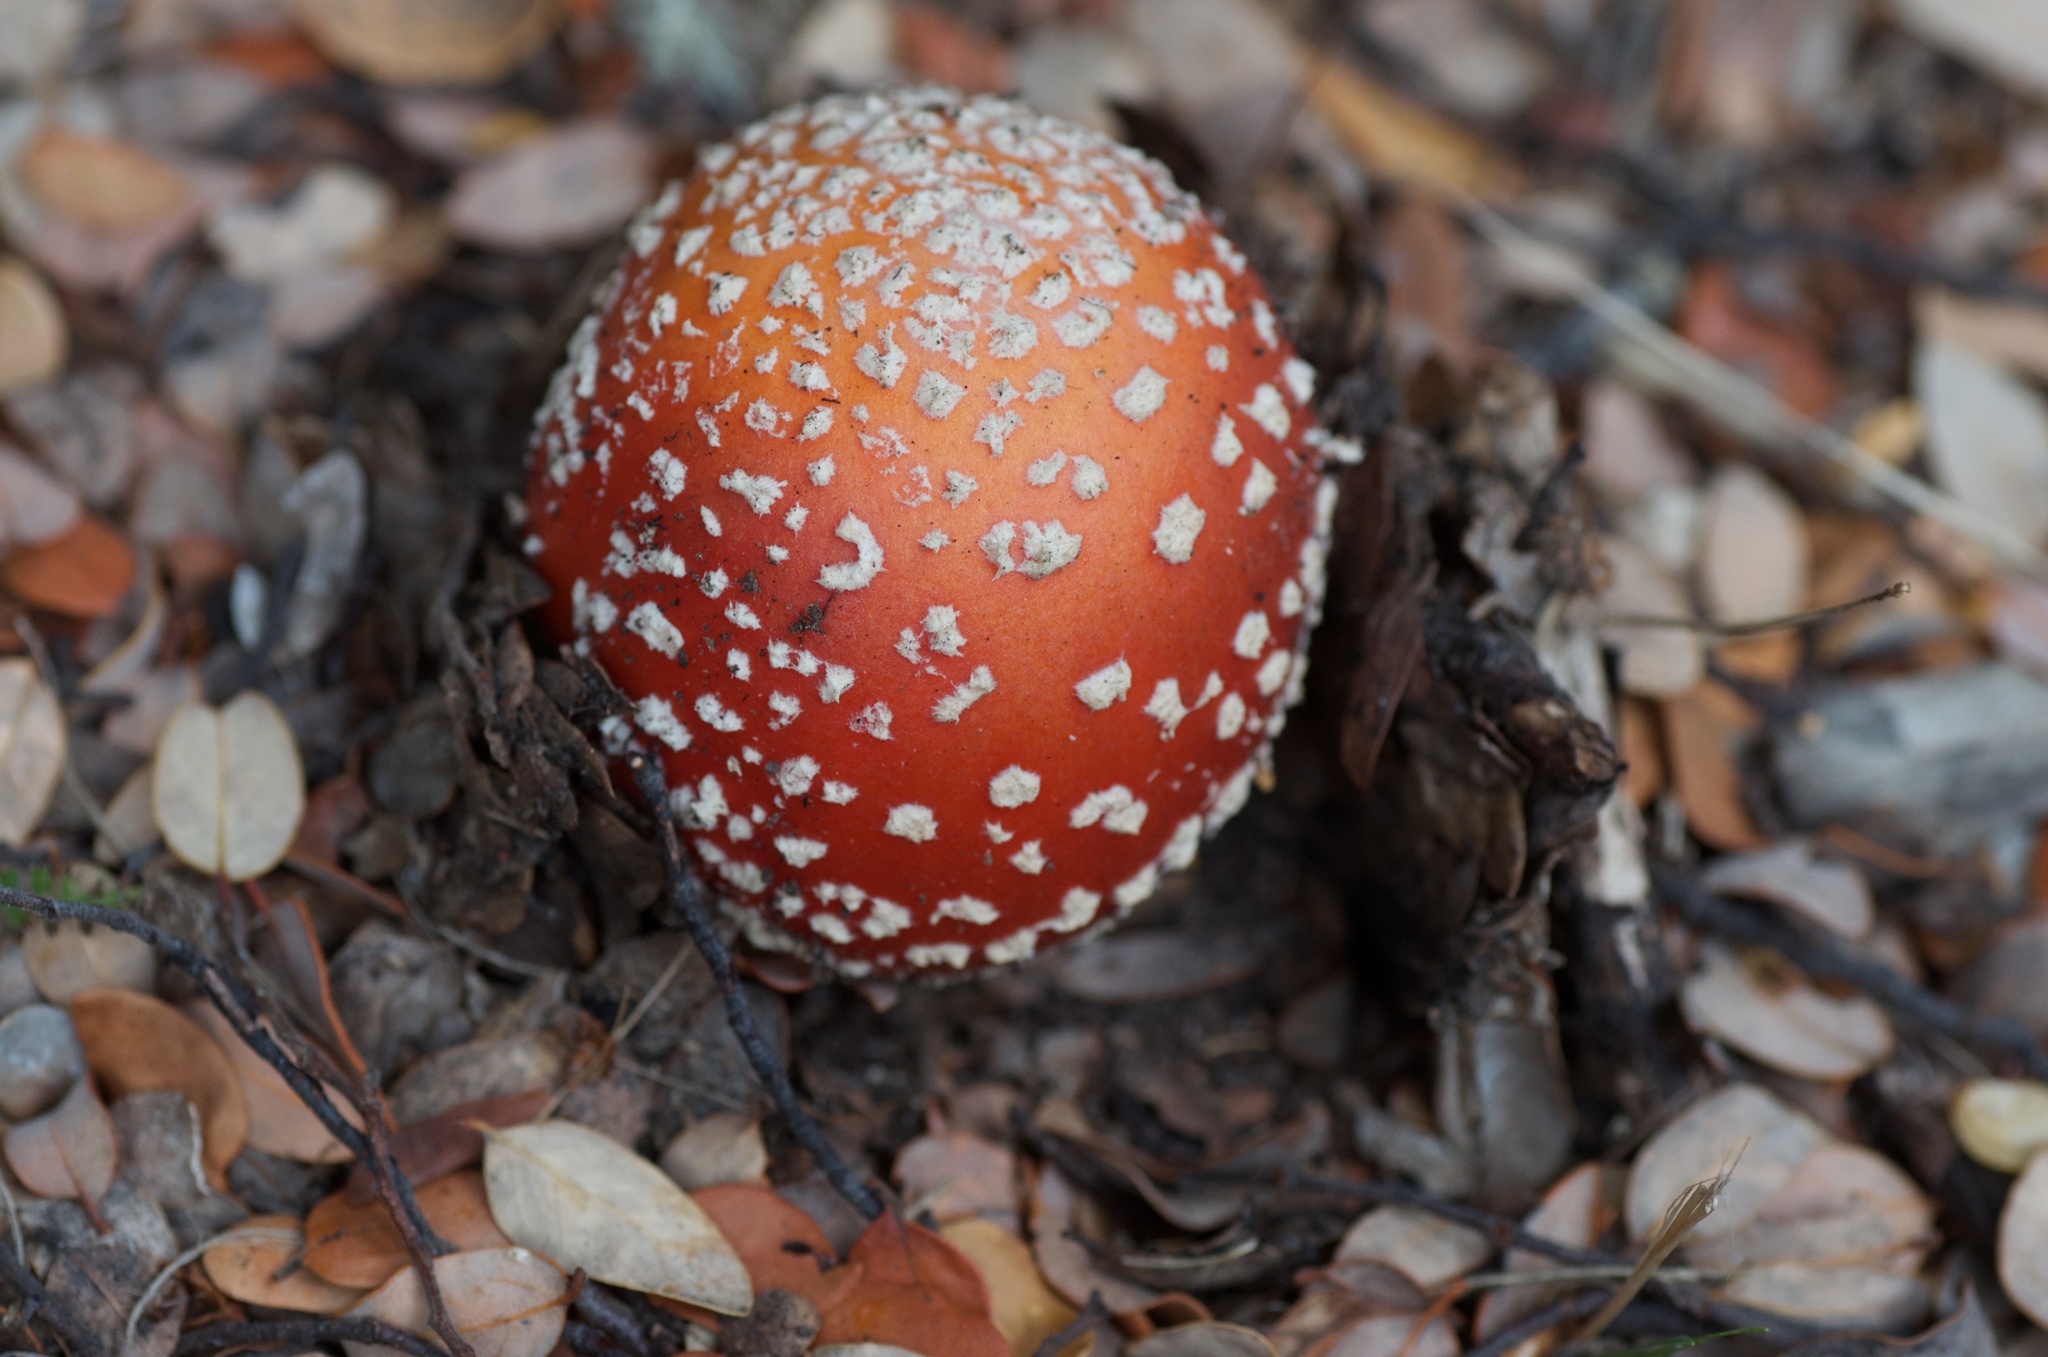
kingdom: Fungi
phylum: Basidiomycota
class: Agaricomycetes
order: Agaricales
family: Amanitaceae
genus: Amanita
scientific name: Amanita muscaria
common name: Fly agaric
